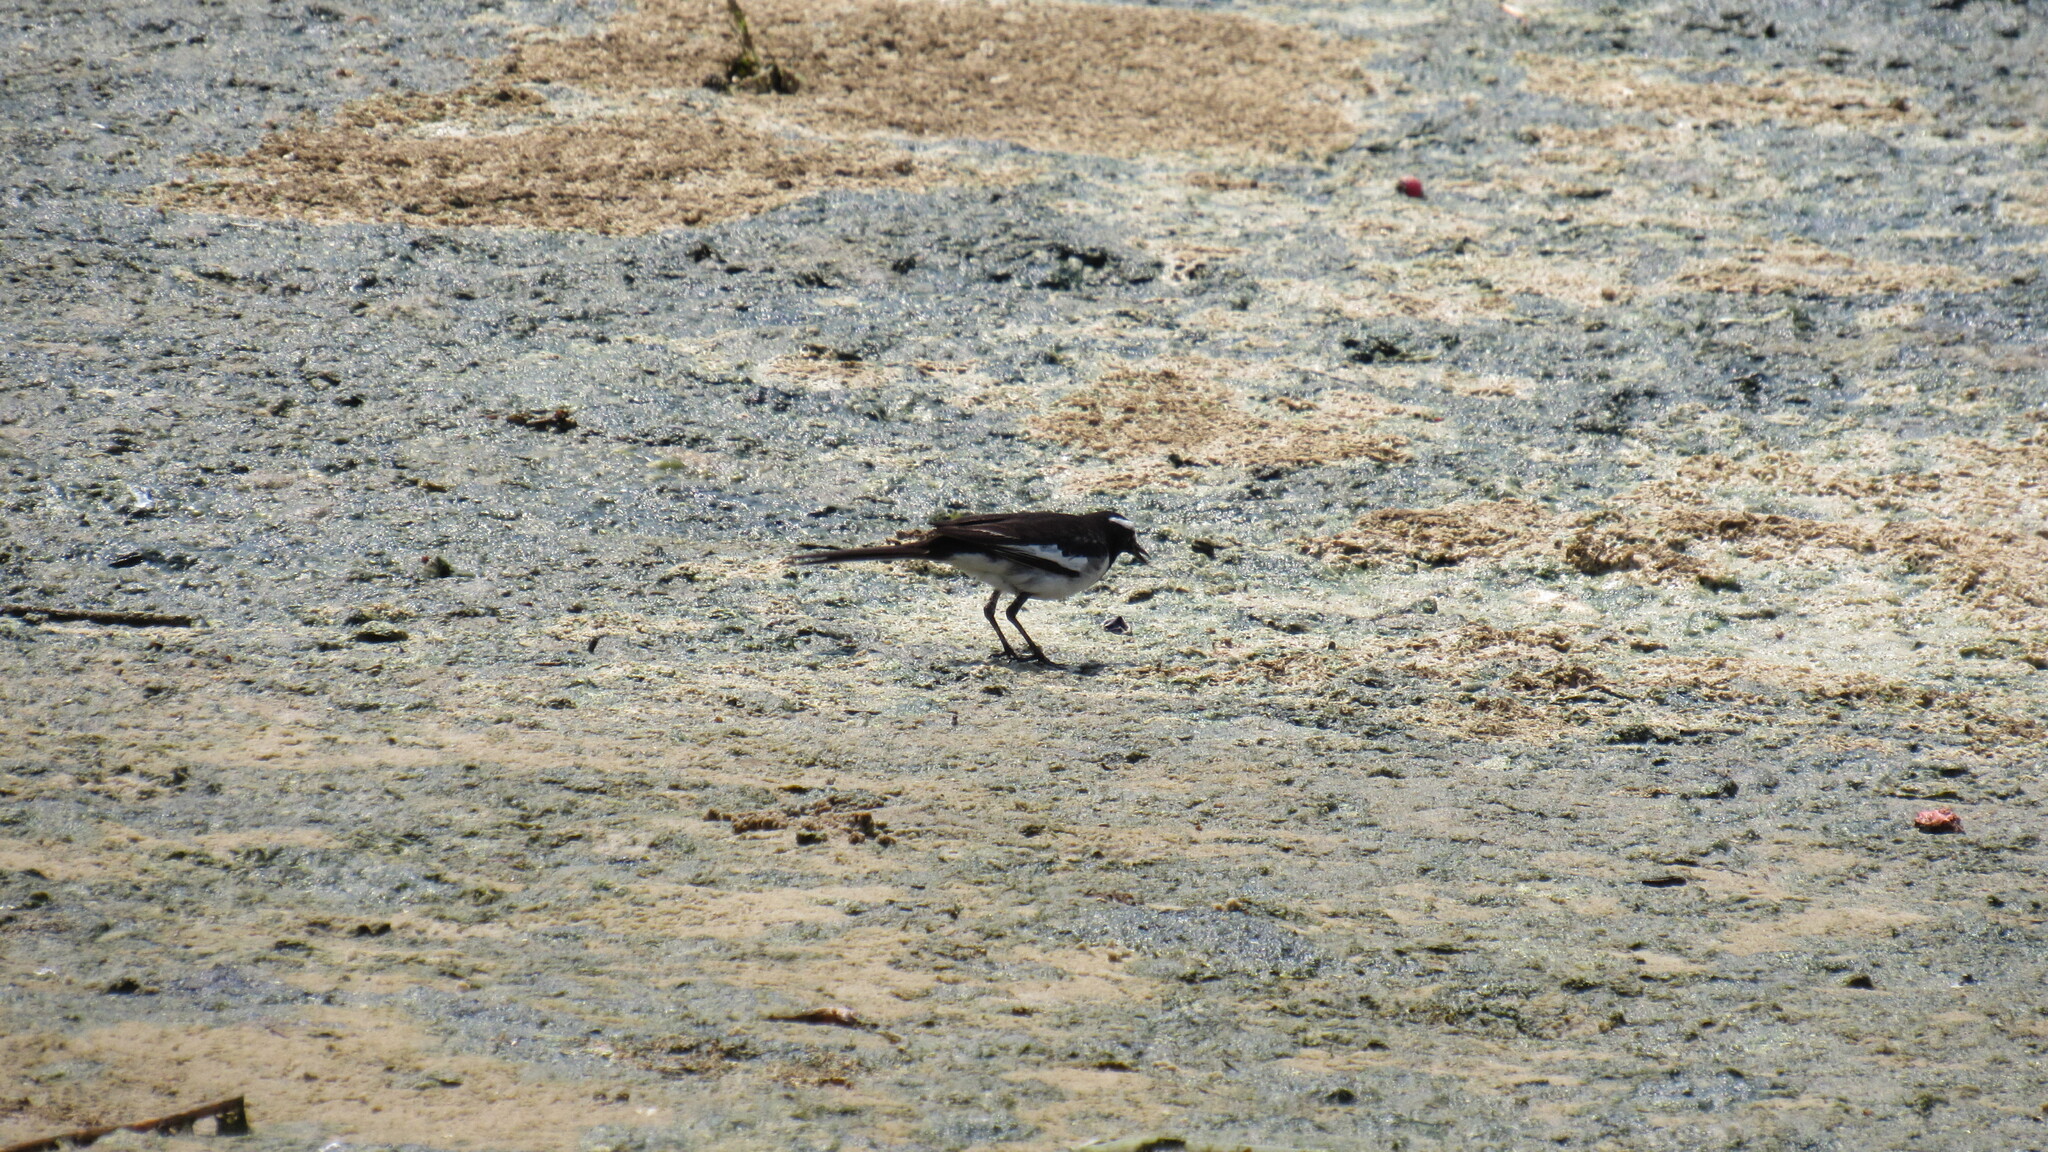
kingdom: Animalia
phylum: Chordata
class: Aves
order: Passeriformes
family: Motacillidae
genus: Motacilla
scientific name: Motacilla maderaspatensis
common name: White-browed wagtail
